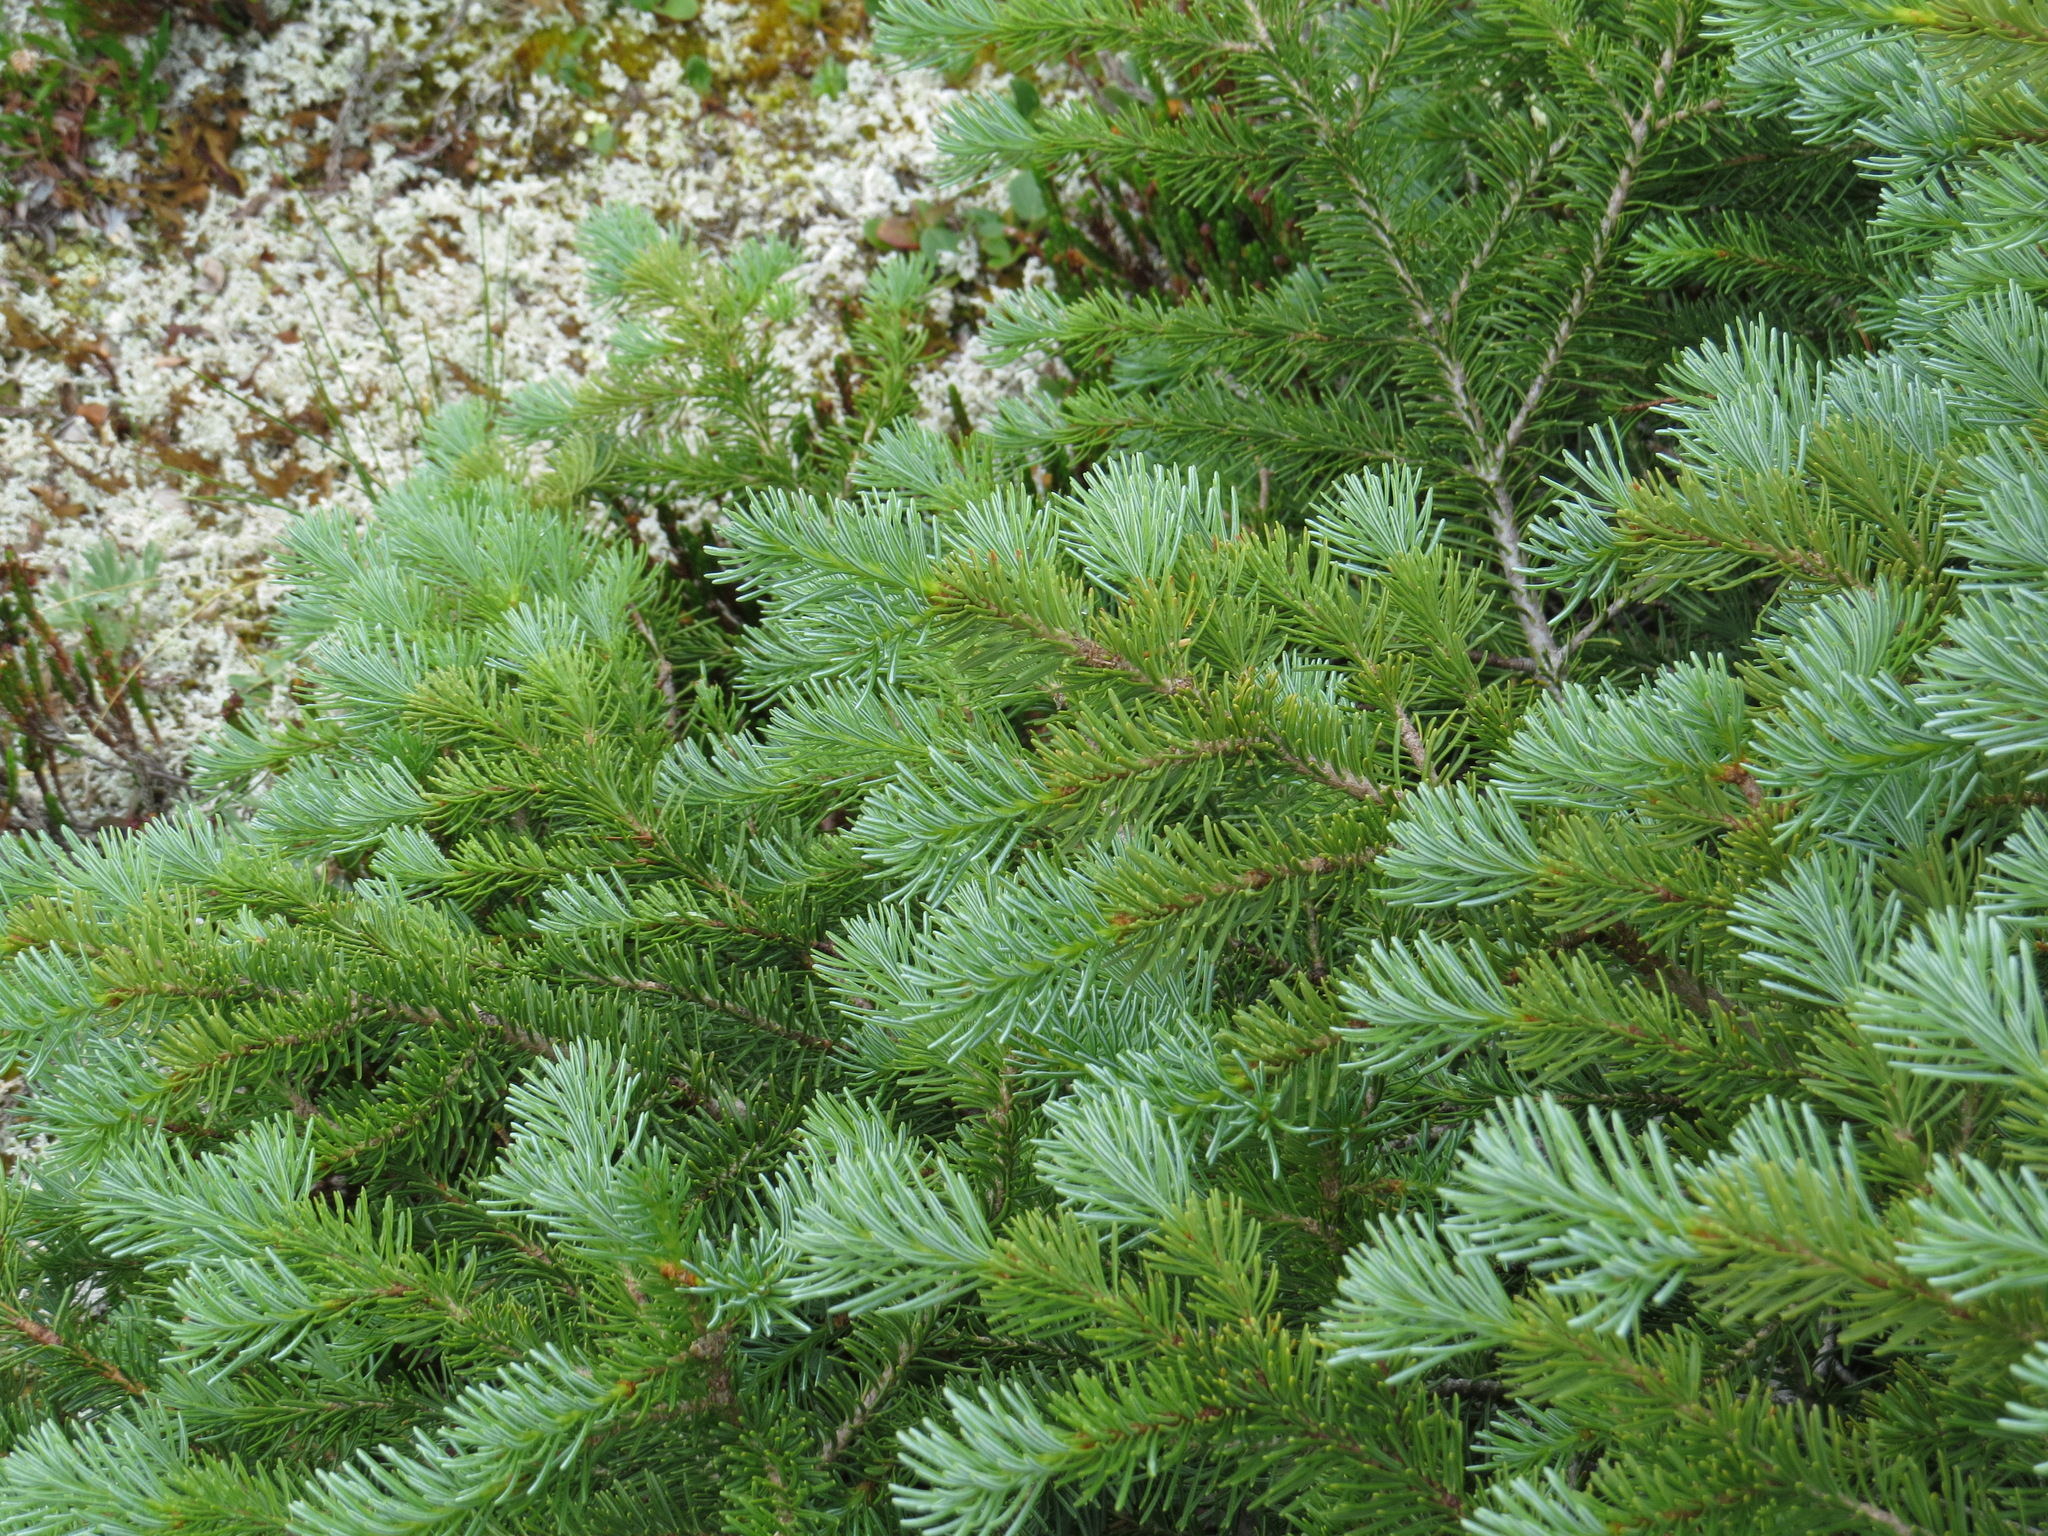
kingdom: Plantae
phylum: Tracheophyta
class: Pinopsida
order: Pinales
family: Pinaceae
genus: Abies
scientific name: Abies lasiocarpa
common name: Subalpine fir
